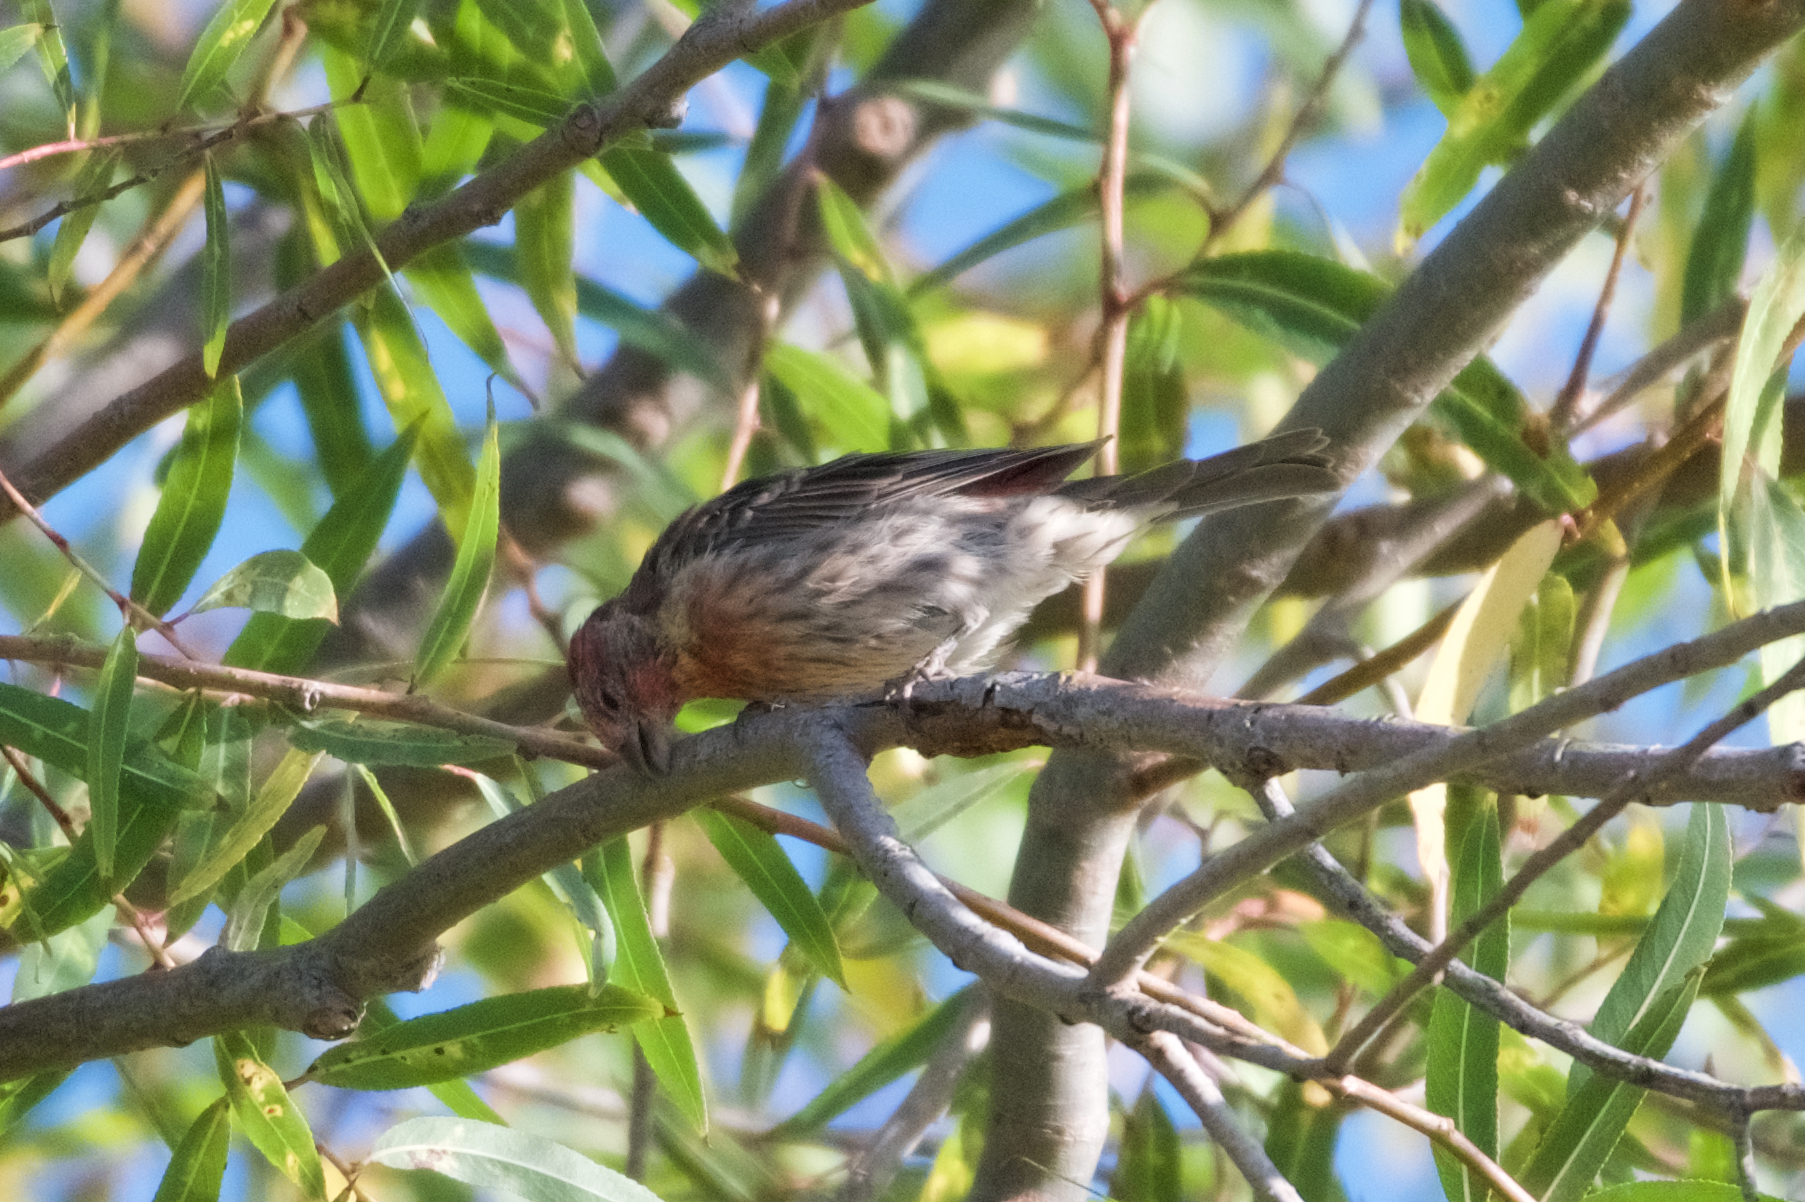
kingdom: Animalia
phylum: Chordata
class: Aves
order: Passeriformes
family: Fringillidae
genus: Haemorhous
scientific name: Haemorhous mexicanus
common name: House finch
